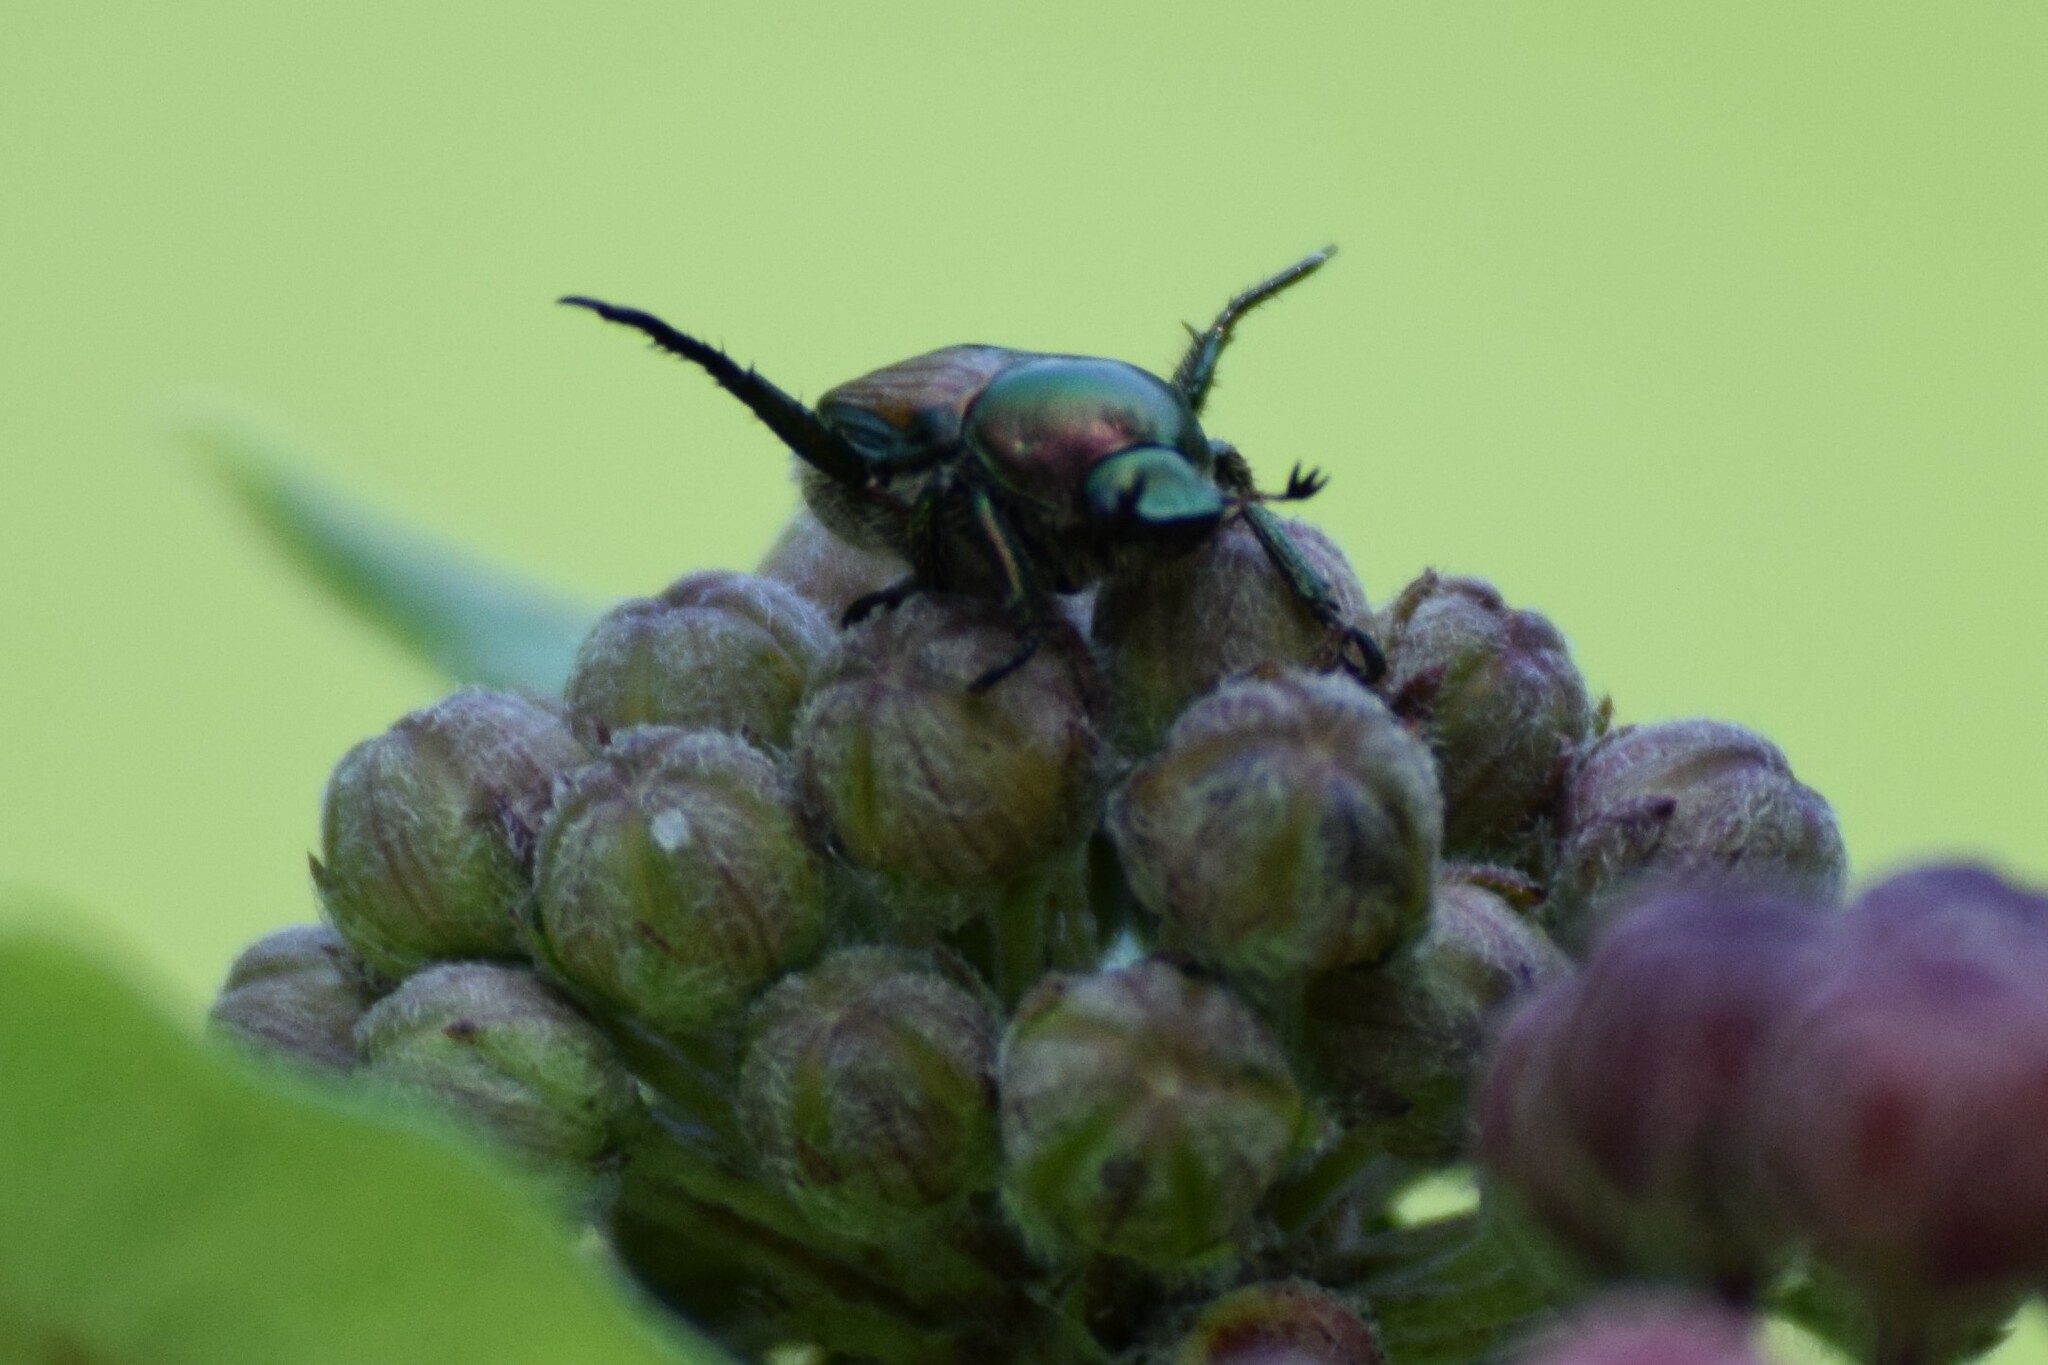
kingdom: Animalia
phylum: Arthropoda
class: Insecta
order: Coleoptera
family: Scarabaeidae
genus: Popillia
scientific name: Popillia japonica
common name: Japanese beetle
